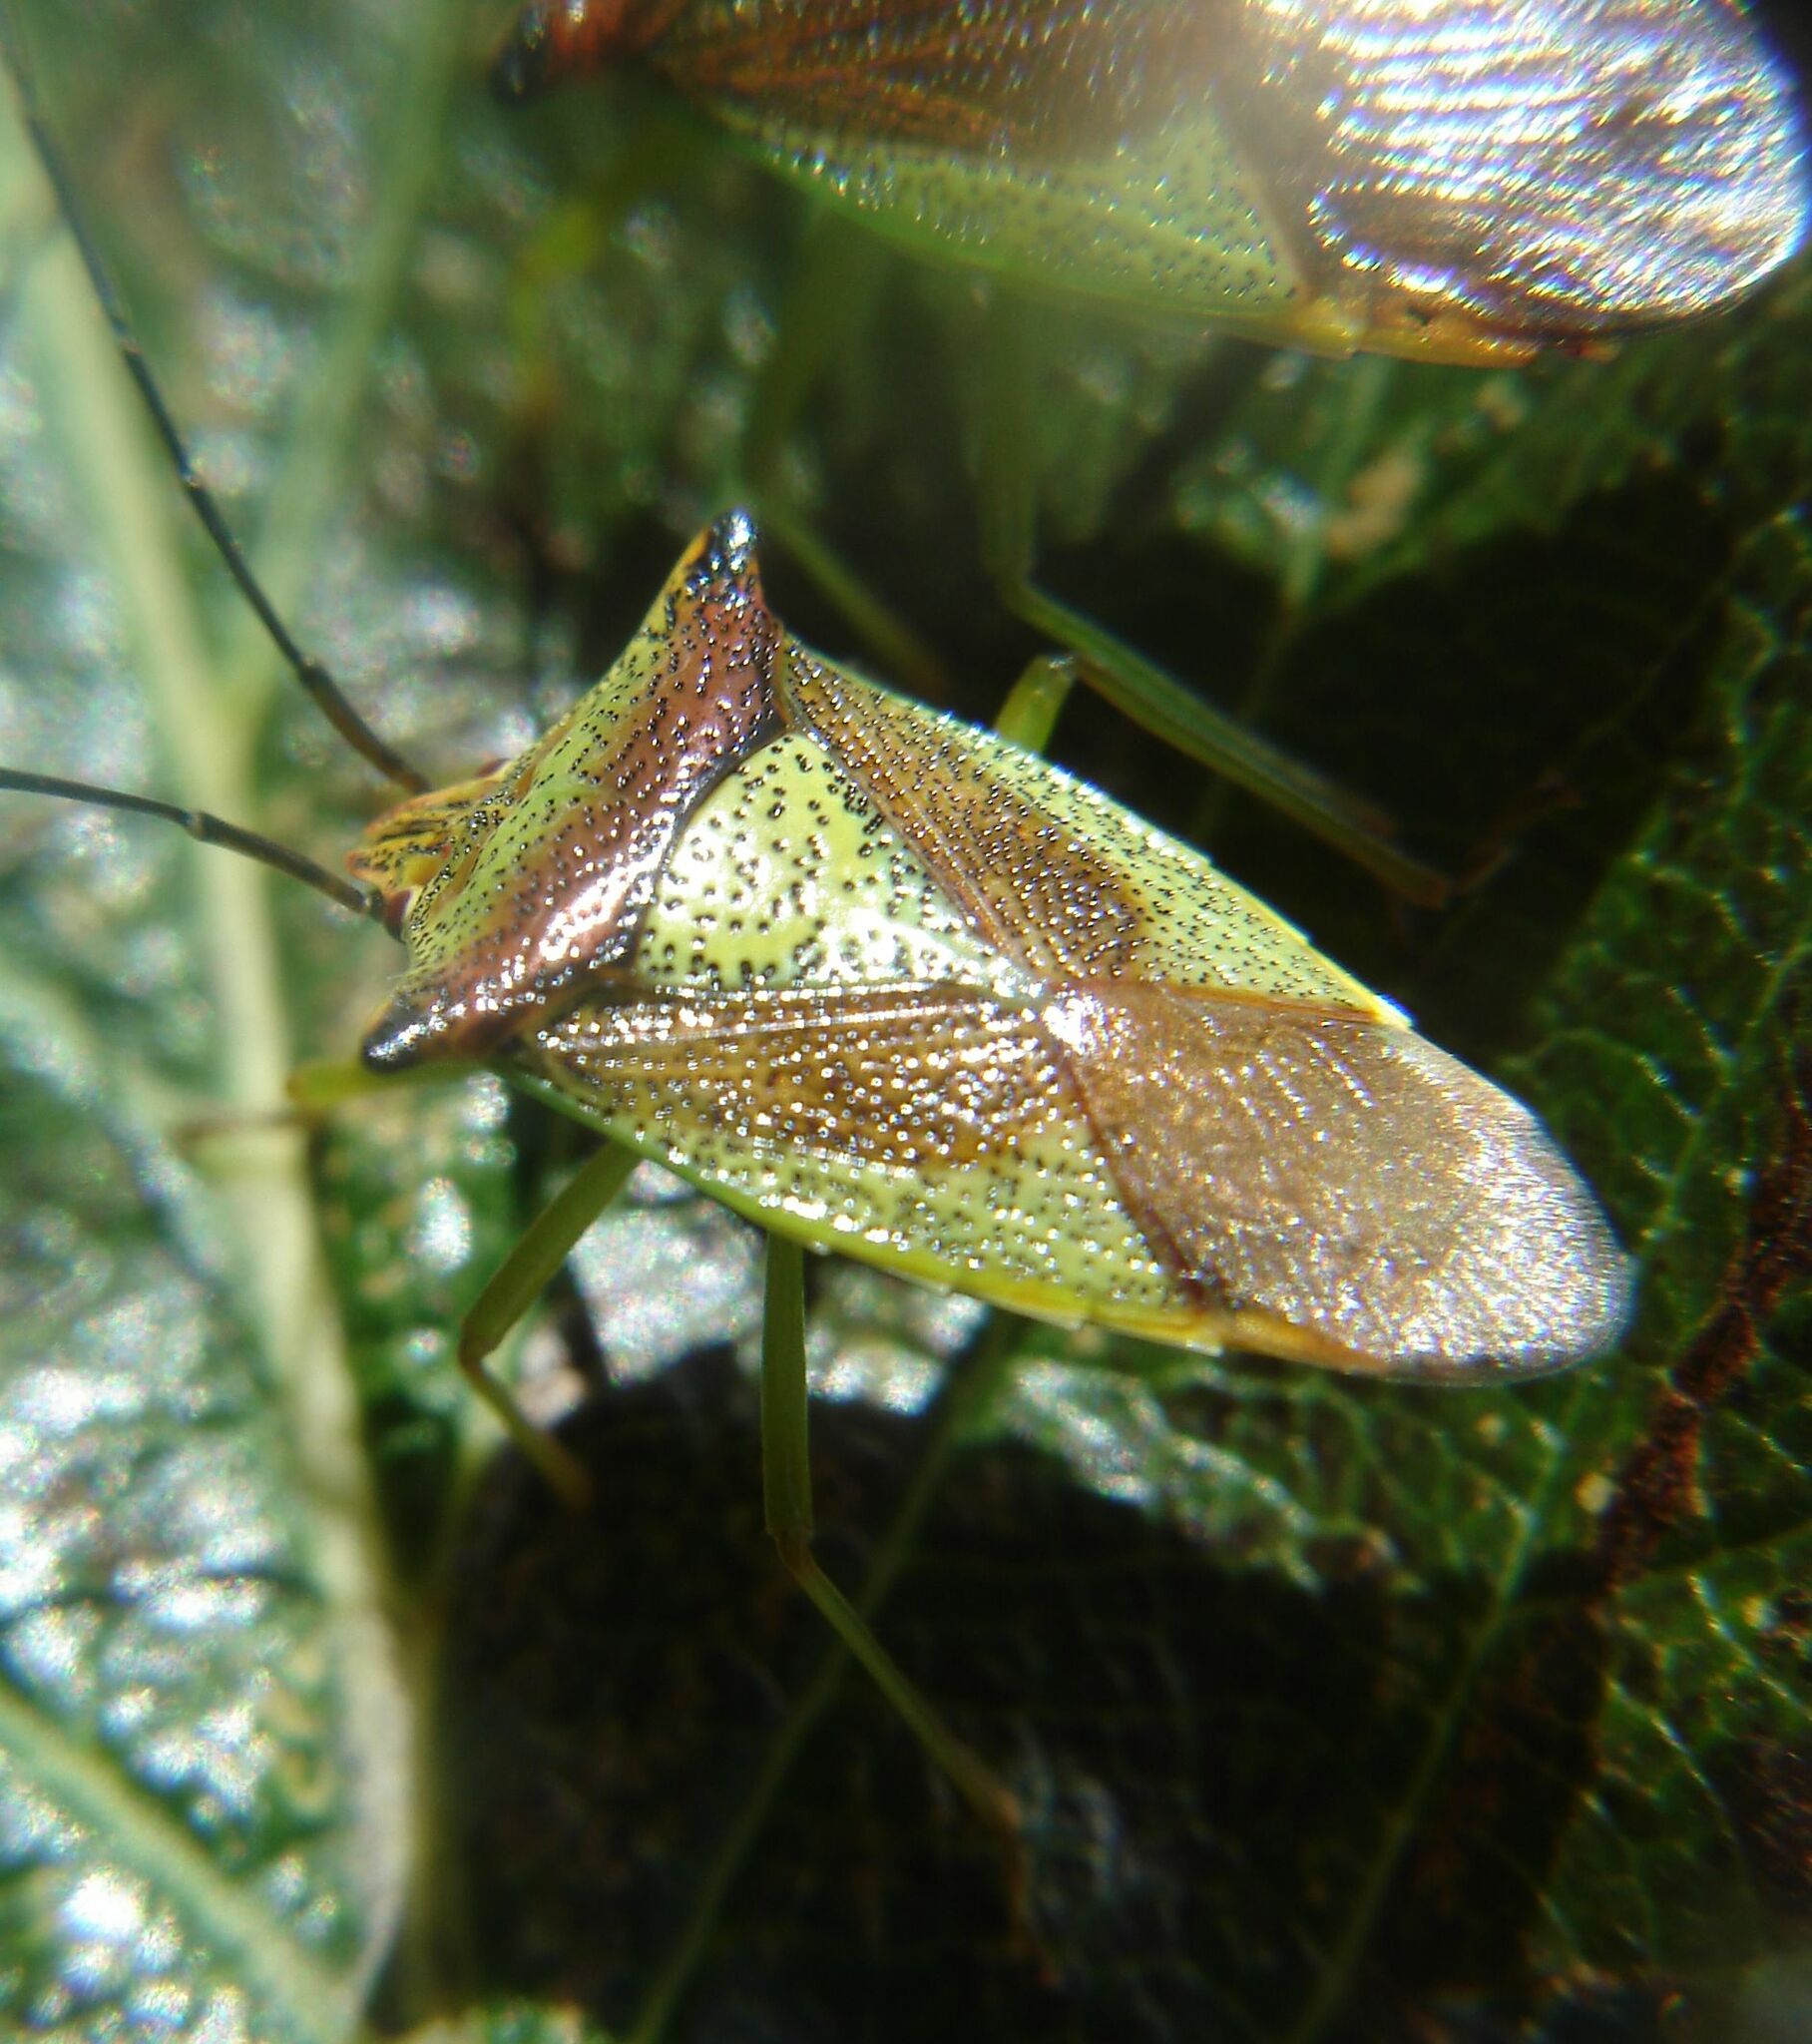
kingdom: Animalia
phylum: Arthropoda
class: Insecta
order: Hemiptera
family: Acanthosomatidae
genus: Acanthosoma
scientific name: Acanthosoma haemorrhoidale
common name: Hawthorn shieldbug
